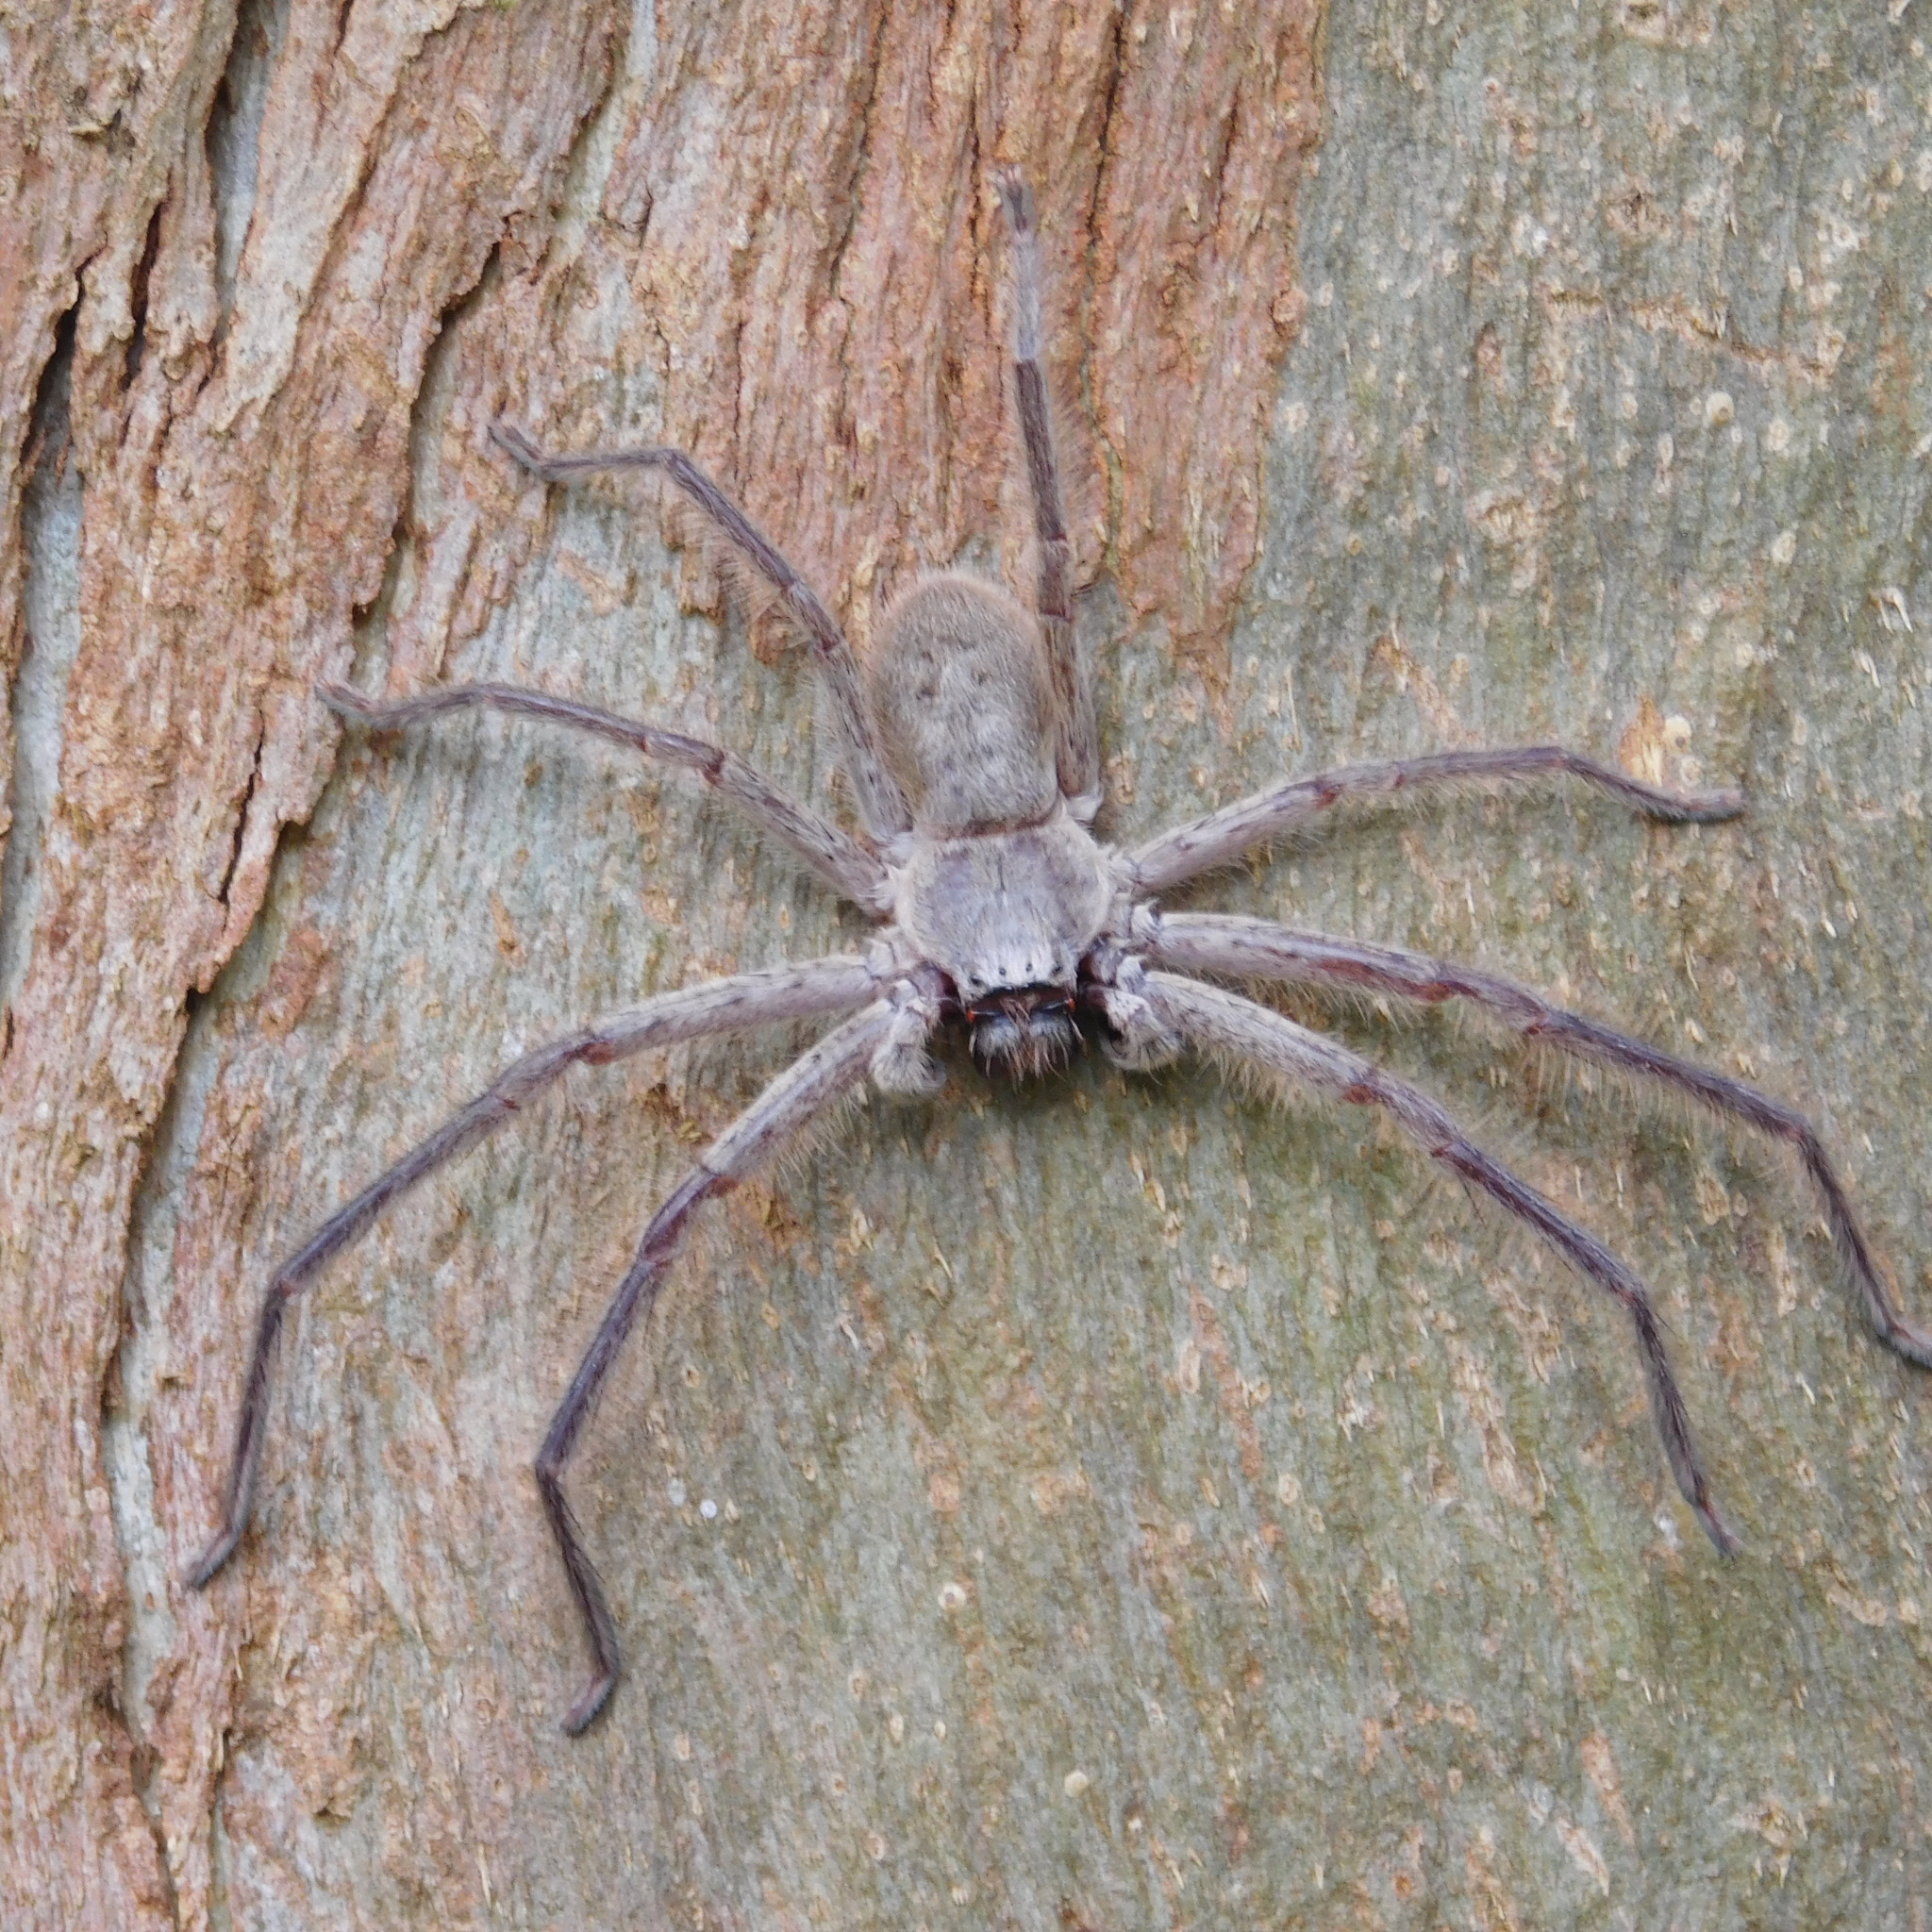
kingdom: Animalia
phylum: Arthropoda
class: Arachnida
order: Araneae
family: Sparassidae
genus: Isopeda
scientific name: Isopeda villosa
